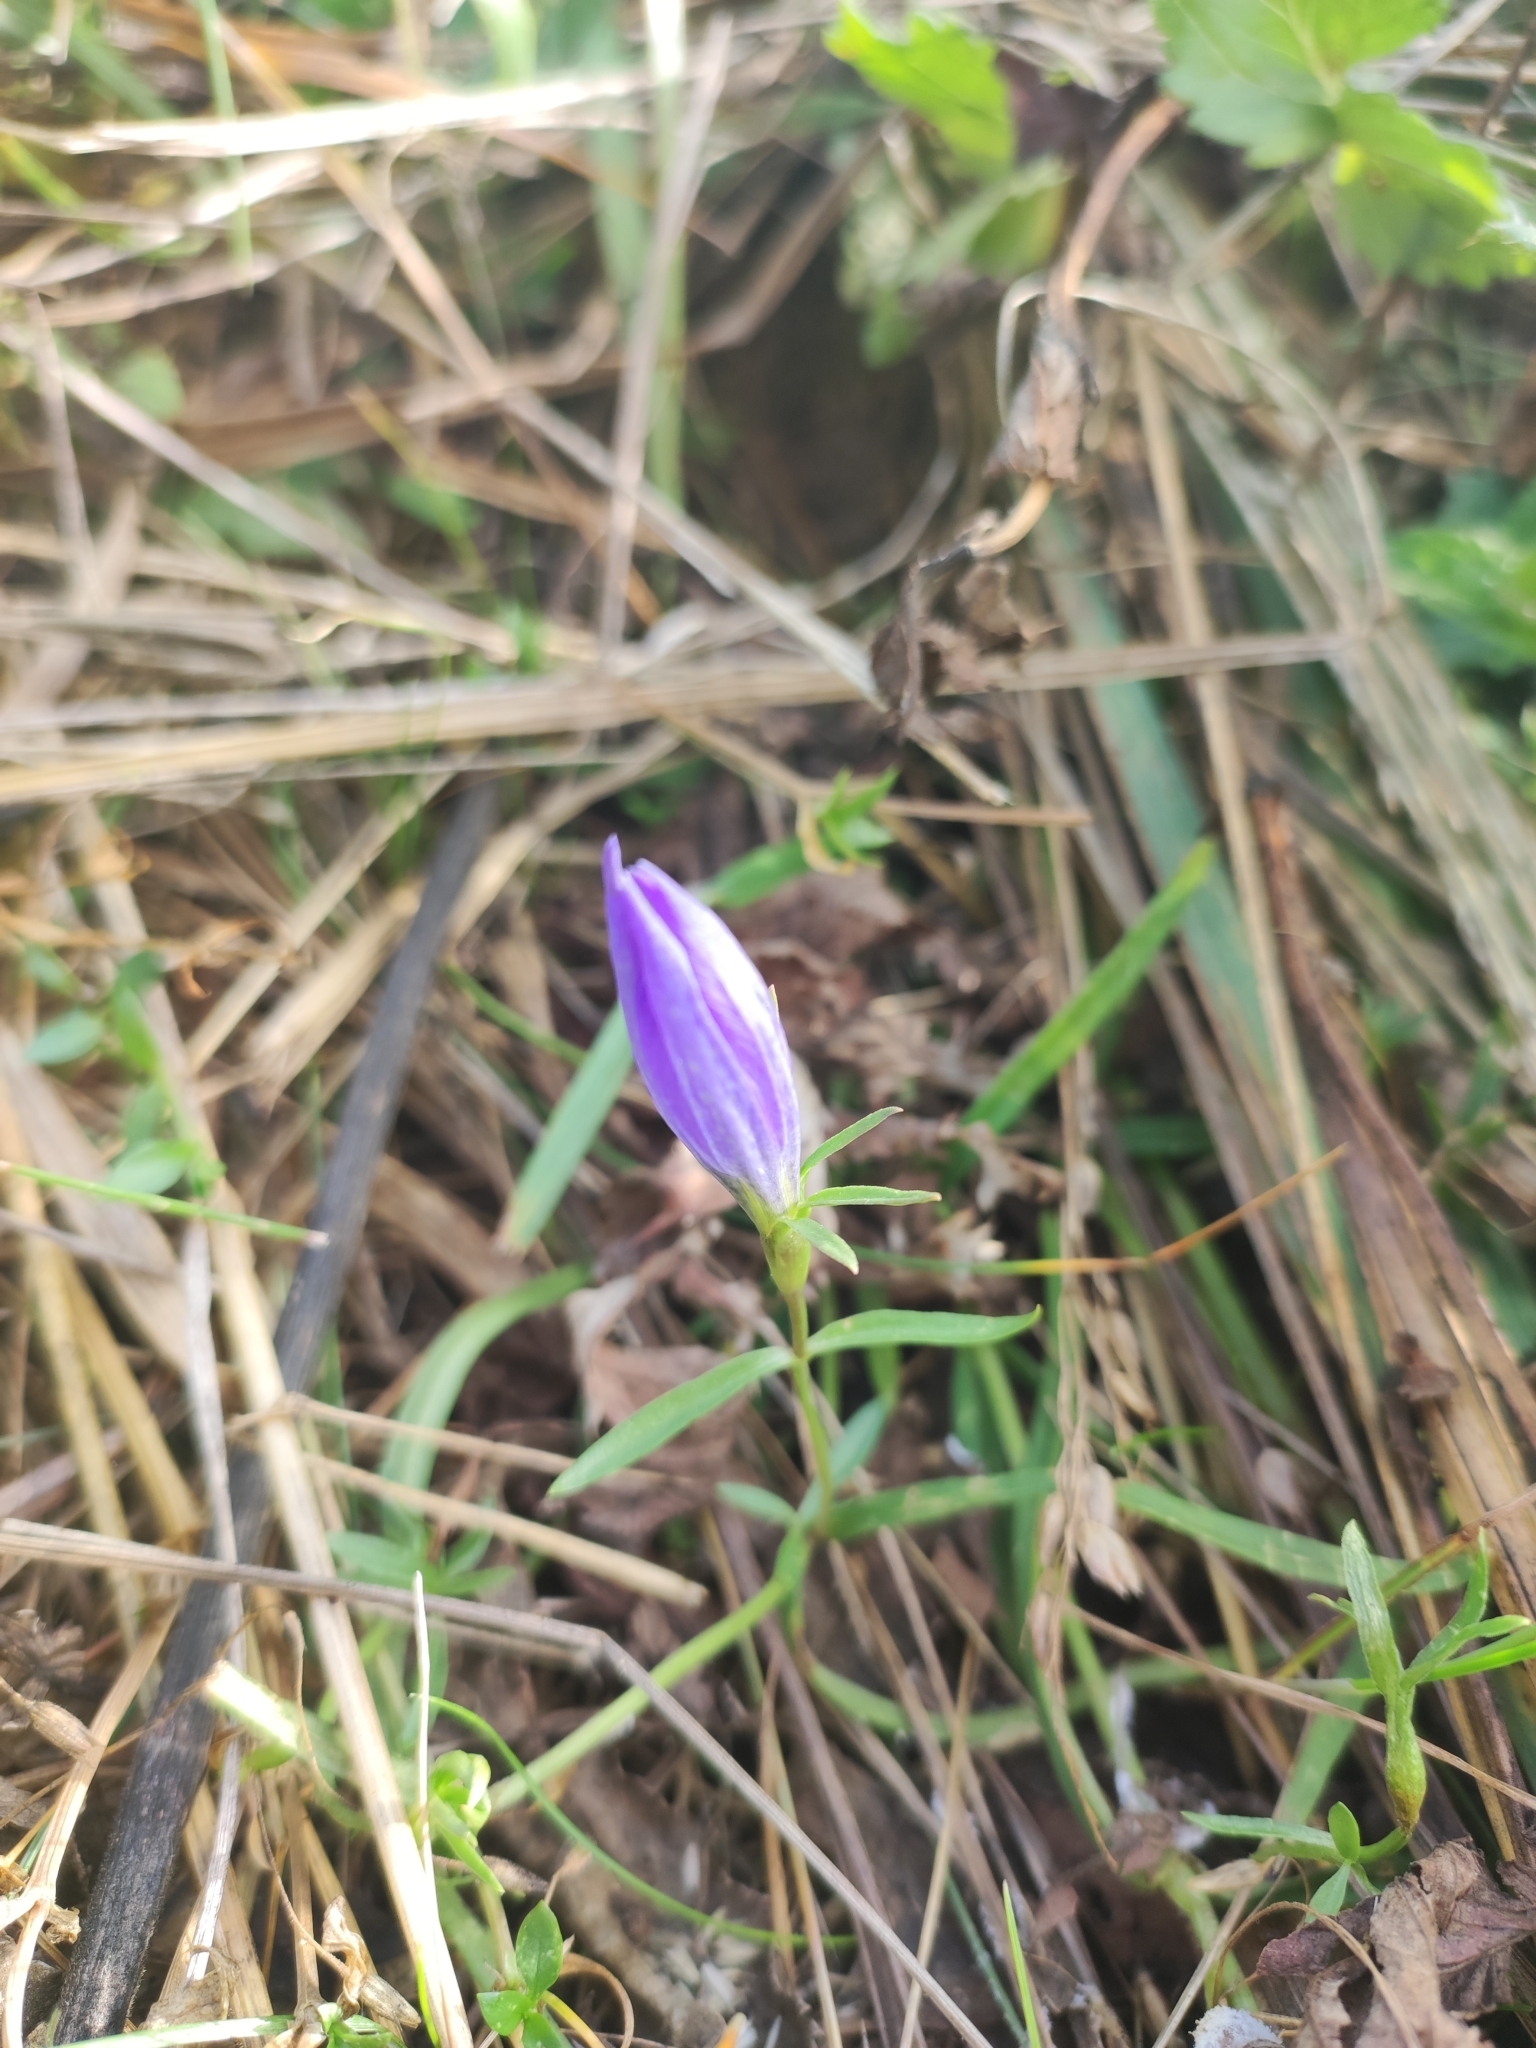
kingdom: Plantae
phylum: Tracheophyta
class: Magnoliopsida
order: Gentianales
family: Gentianaceae
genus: Gentiana
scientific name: Gentiana pneumonanthe
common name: Marsh gentian
